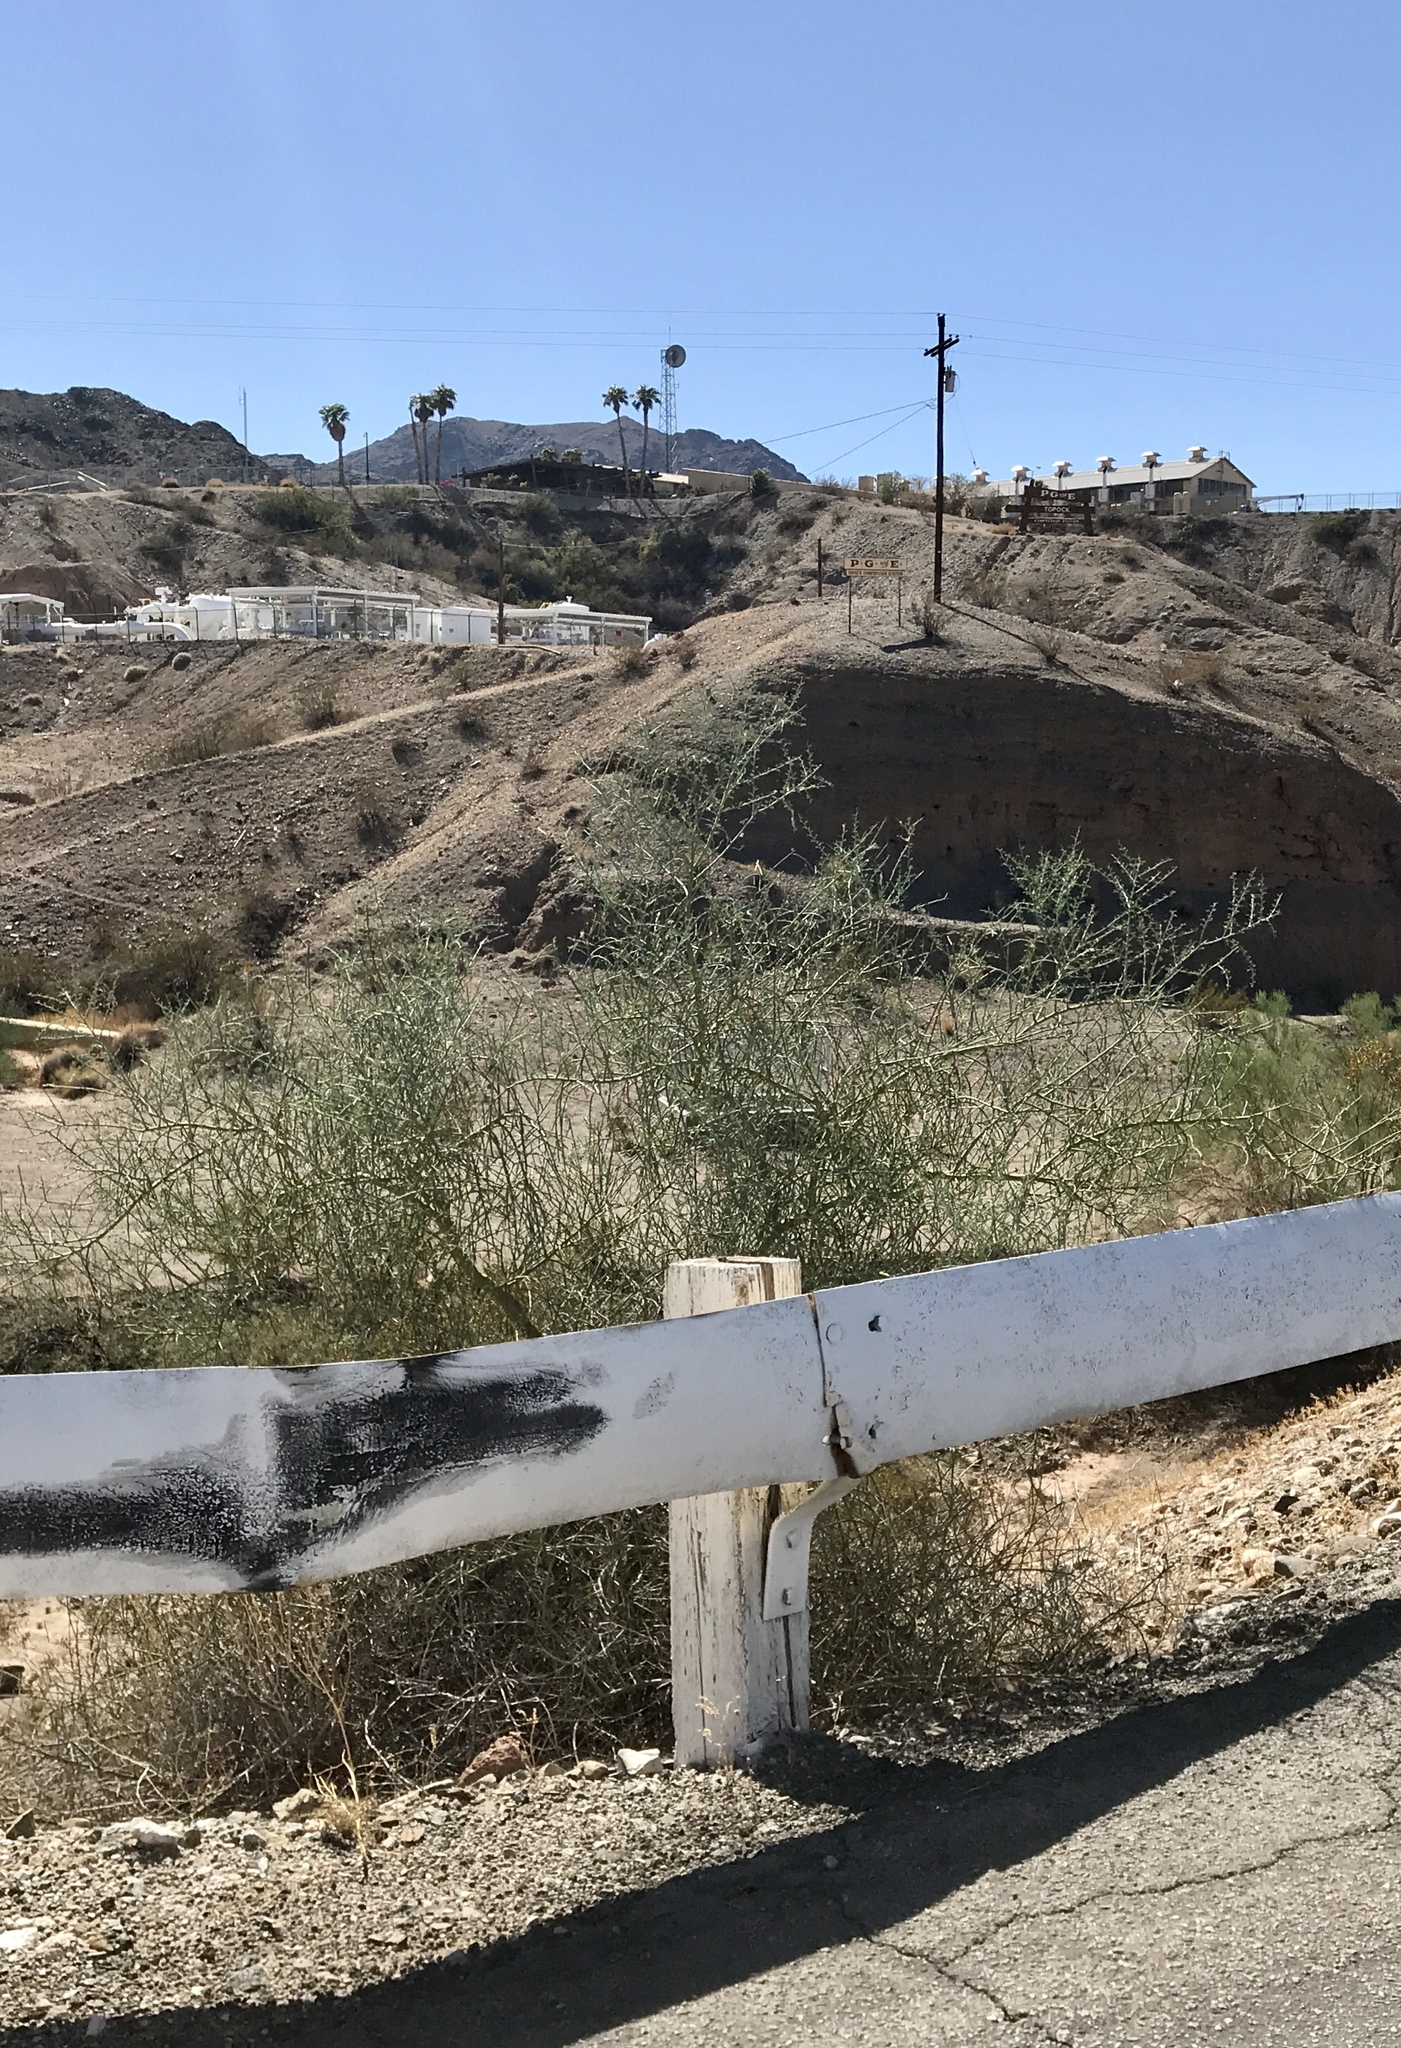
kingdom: Plantae
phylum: Tracheophyta
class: Magnoliopsida
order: Fabales
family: Fabaceae
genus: Parkinsonia
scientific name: Parkinsonia florida
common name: Blue paloverde
